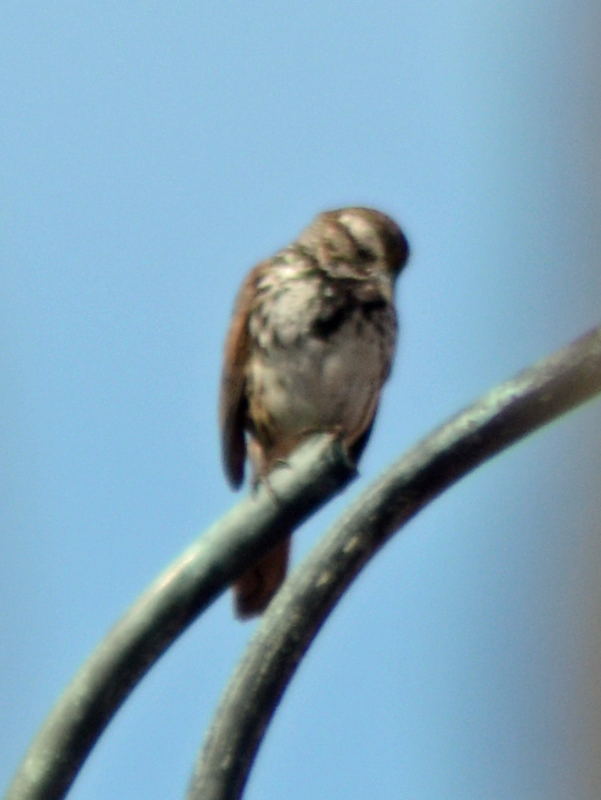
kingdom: Animalia
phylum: Chordata
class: Aves
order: Passeriformes
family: Passerellidae
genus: Melospiza
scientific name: Melospiza melodia
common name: Song sparrow
